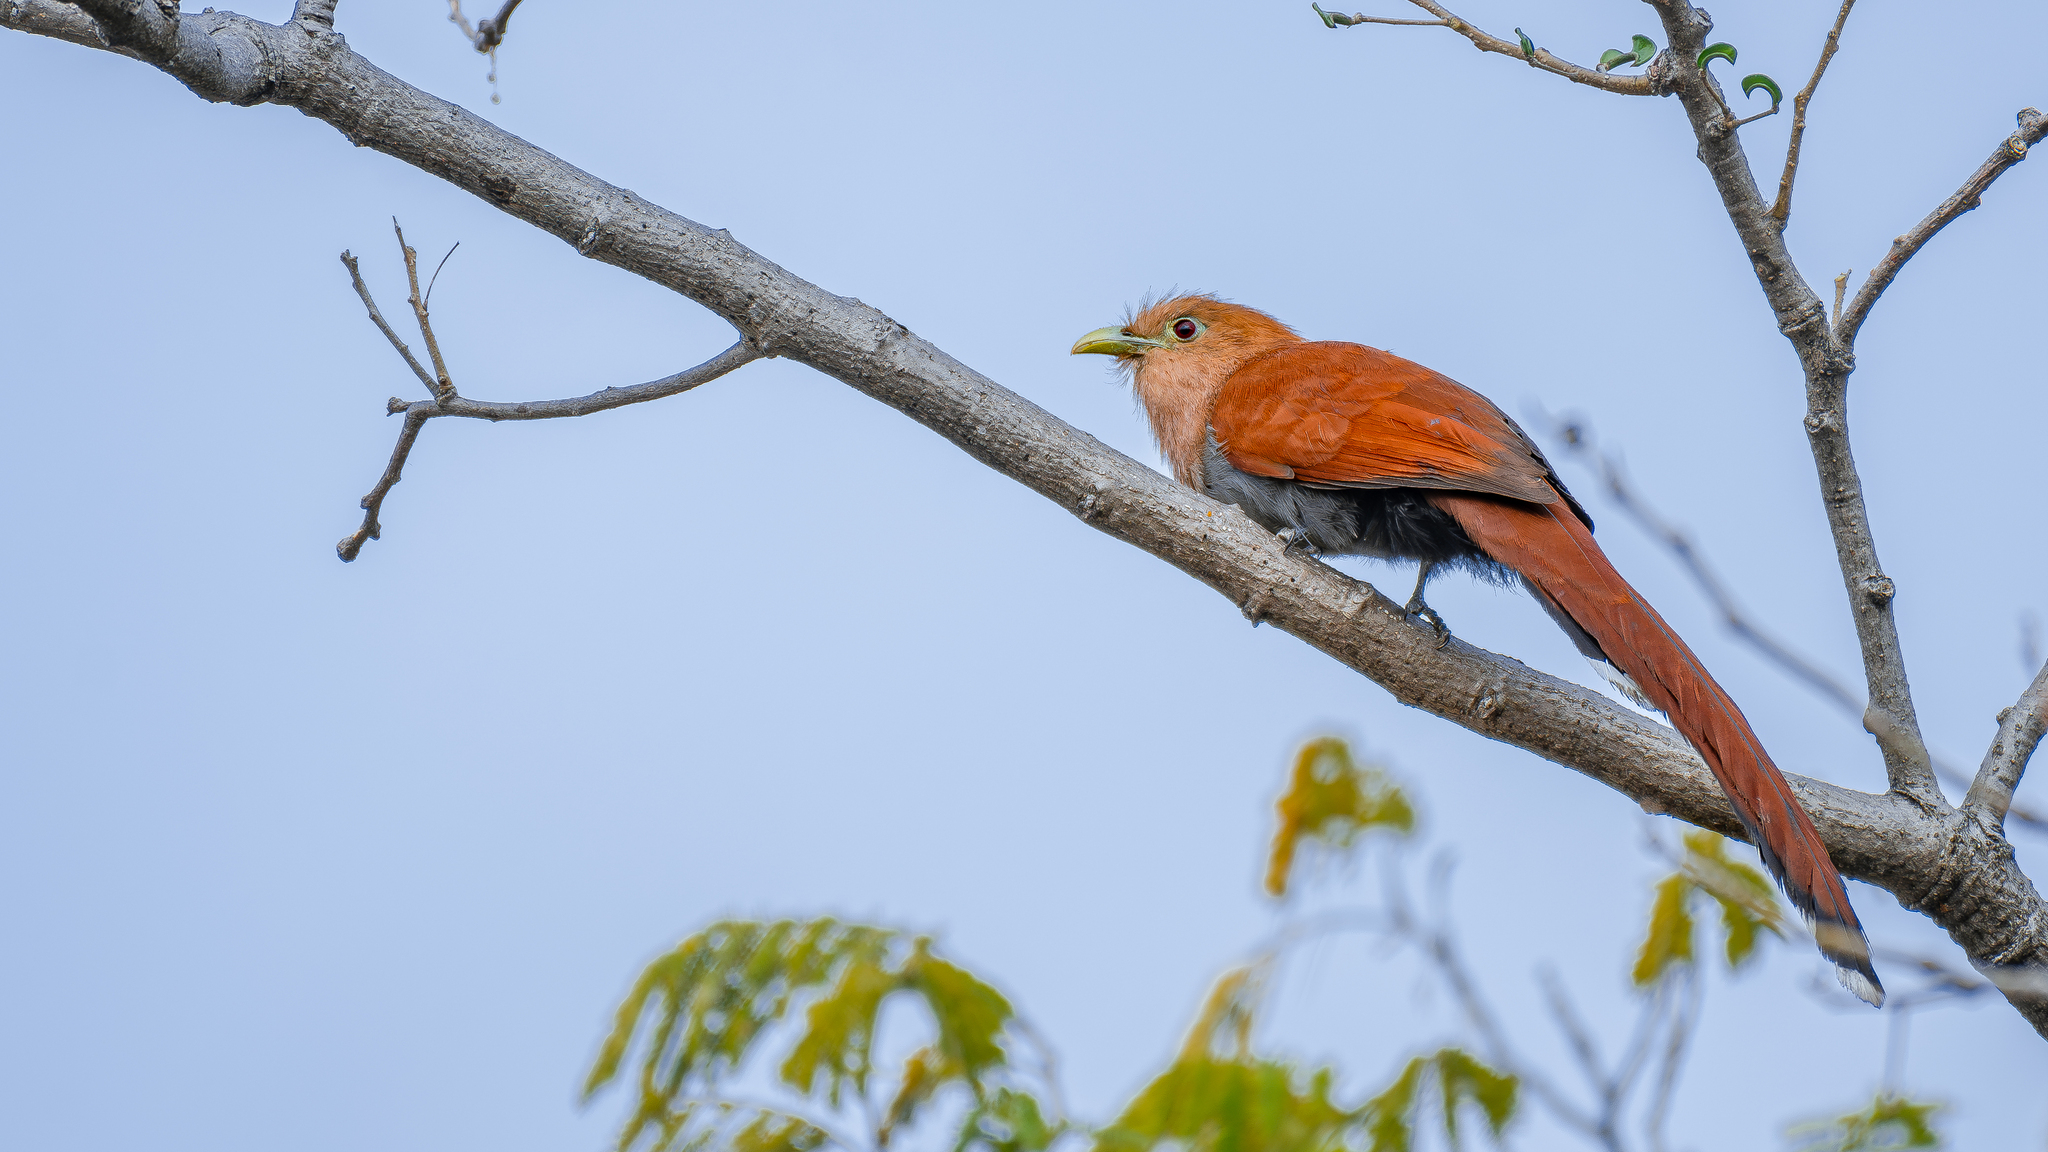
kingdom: Animalia
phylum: Chordata
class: Aves
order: Cuculiformes
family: Cuculidae
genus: Piaya
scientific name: Piaya cayana
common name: Squirrel cuckoo
